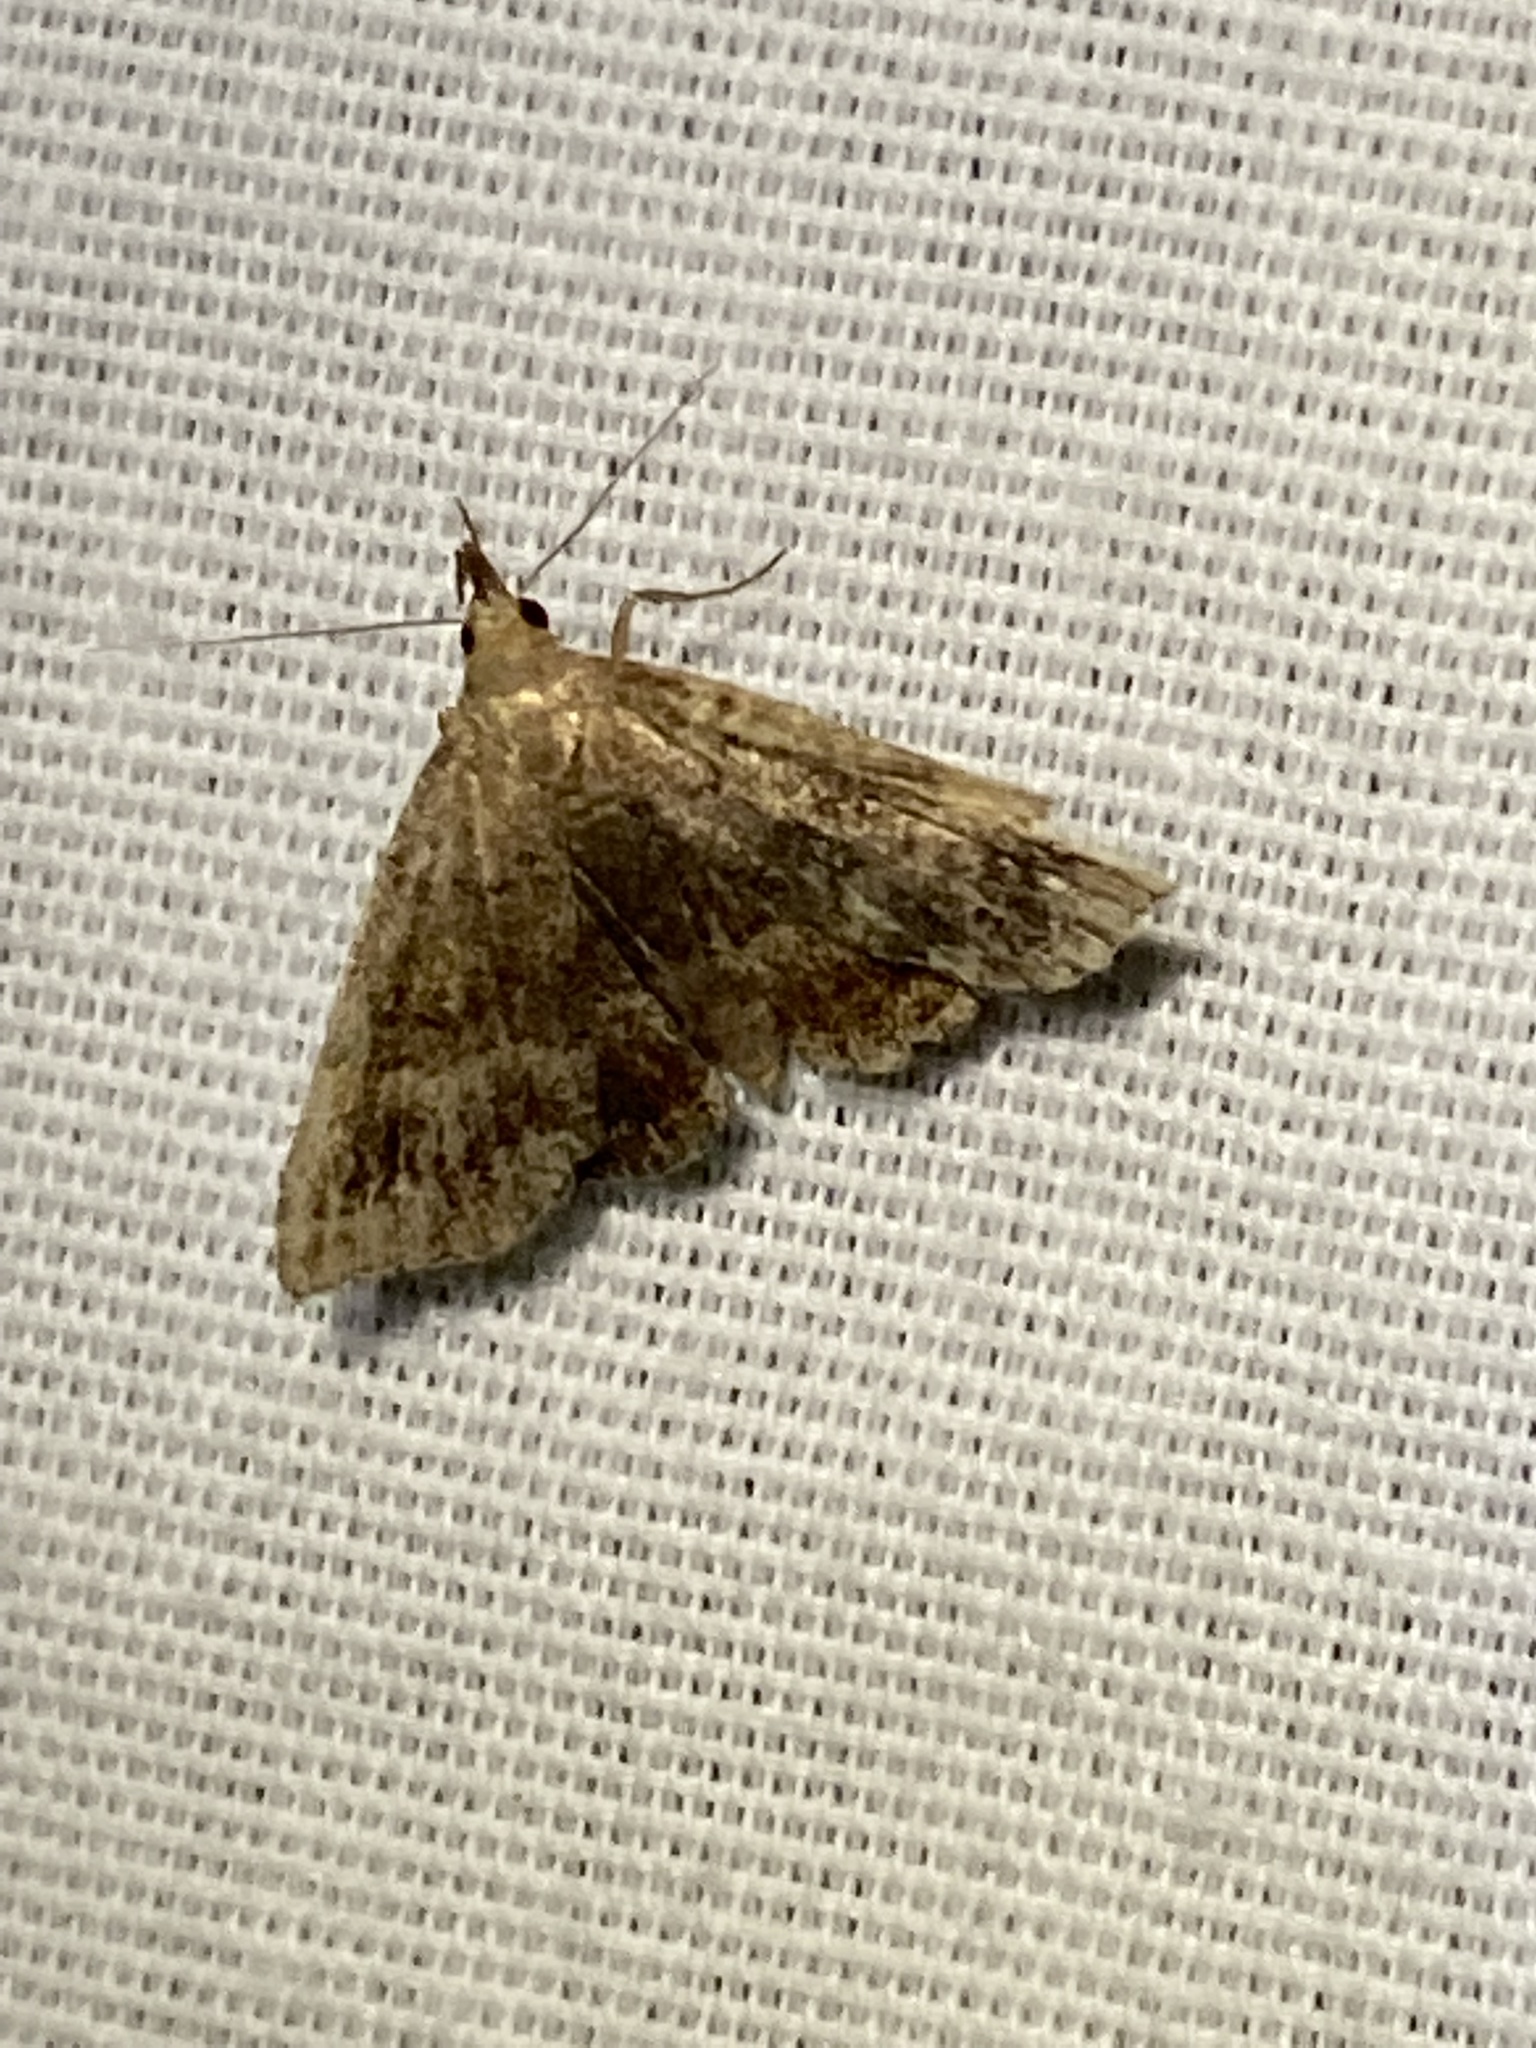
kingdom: Animalia
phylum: Arthropoda
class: Insecta
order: Lepidoptera
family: Erebidae
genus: Phalaenostola
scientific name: Phalaenostola larentioides
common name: Black-banded owlet
